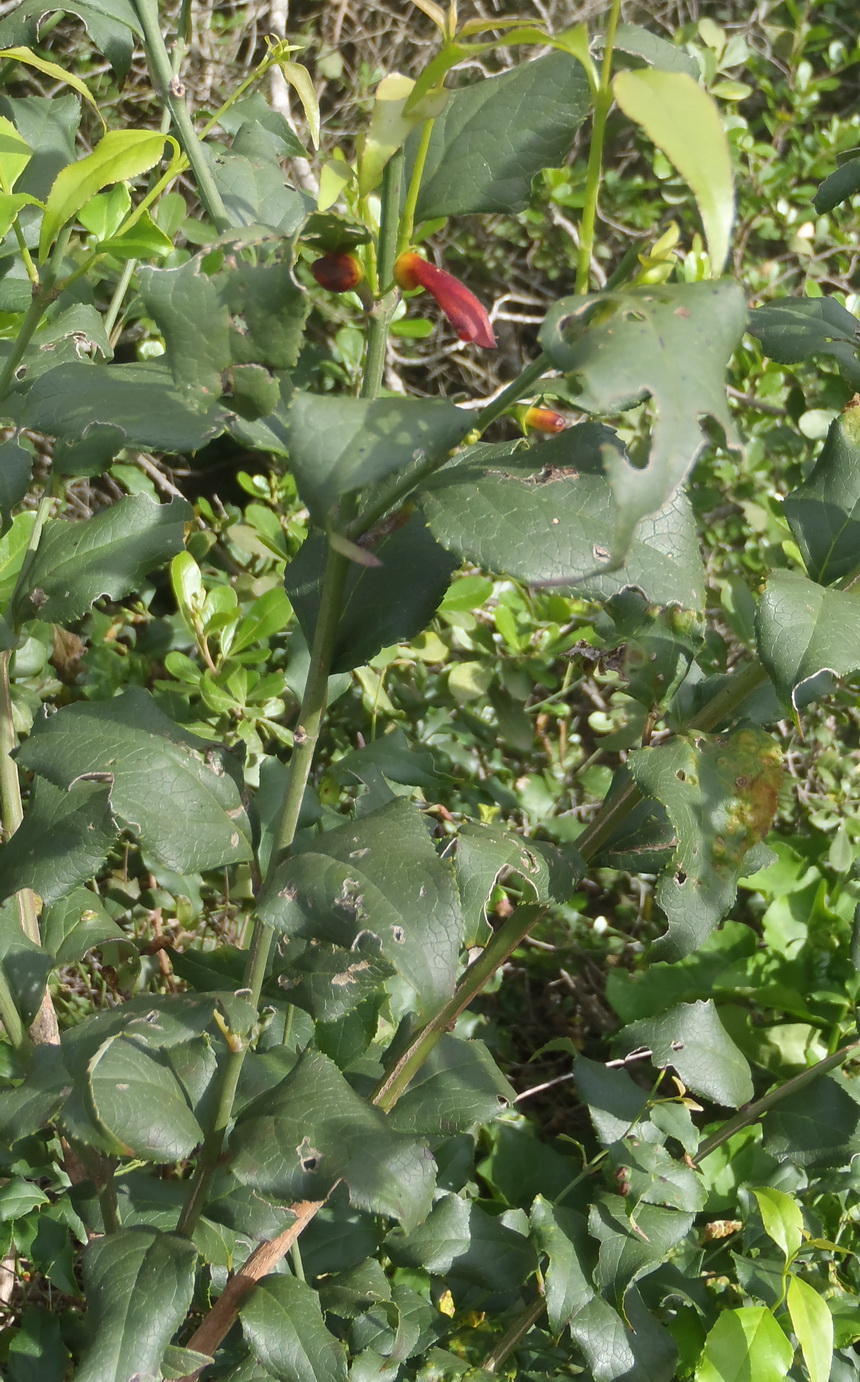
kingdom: Plantae
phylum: Tracheophyta
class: Magnoliopsida
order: Lamiales
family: Stilbaceae
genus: Halleria
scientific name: Halleria lucida
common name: Tree fuschia
